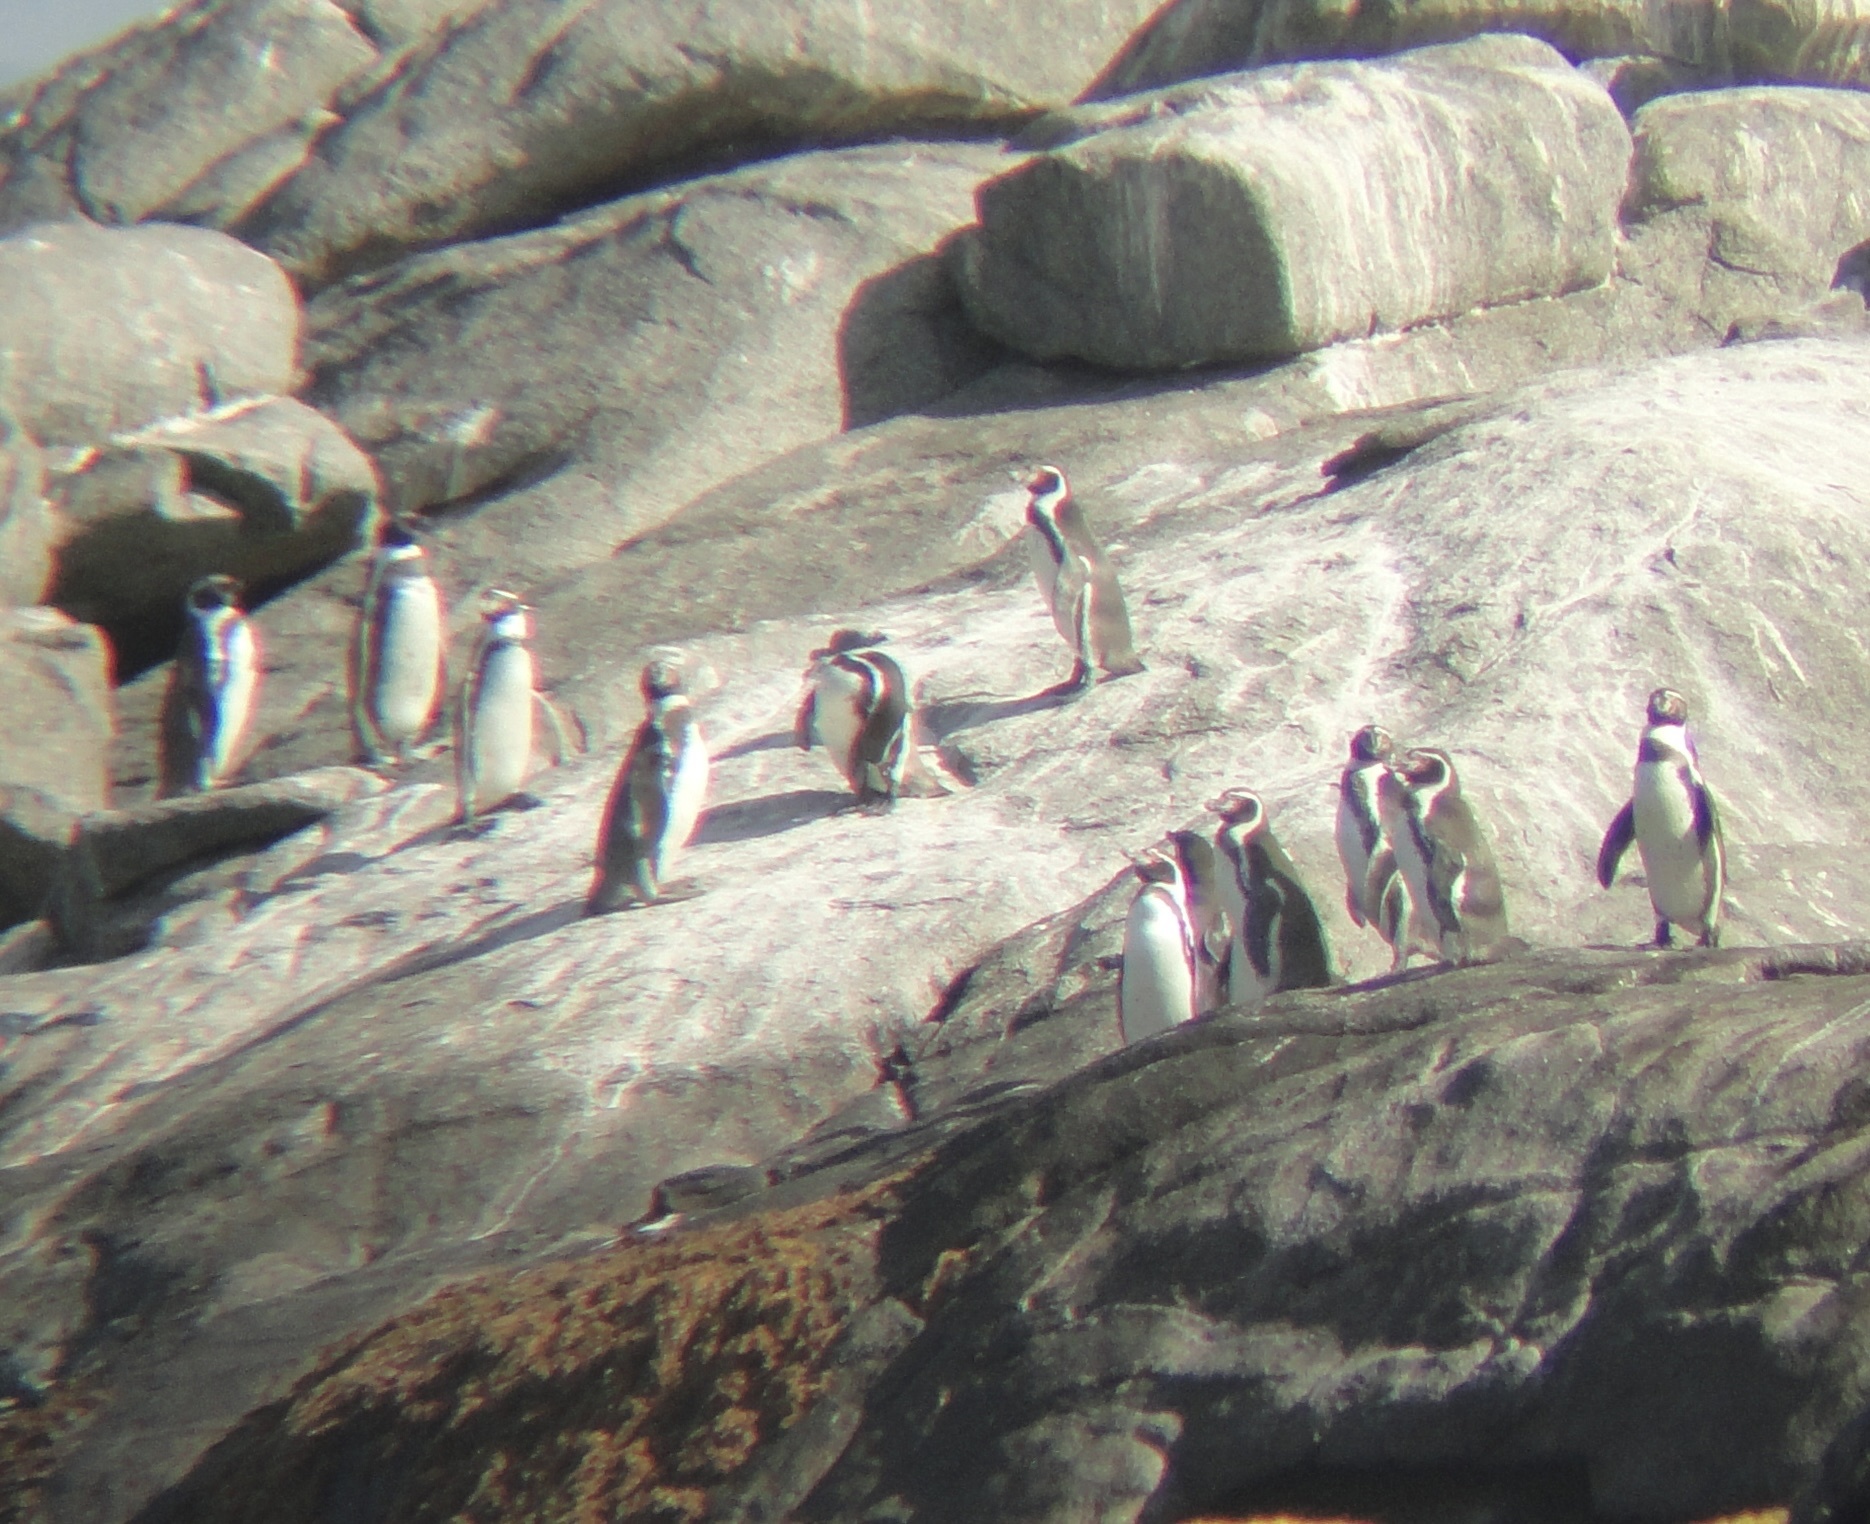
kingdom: Animalia
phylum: Chordata
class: Aves
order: Sphenisciformes
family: Spheniscidae
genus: Spheniscus
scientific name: Spheniscus humboldti
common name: Humboldt penguin
